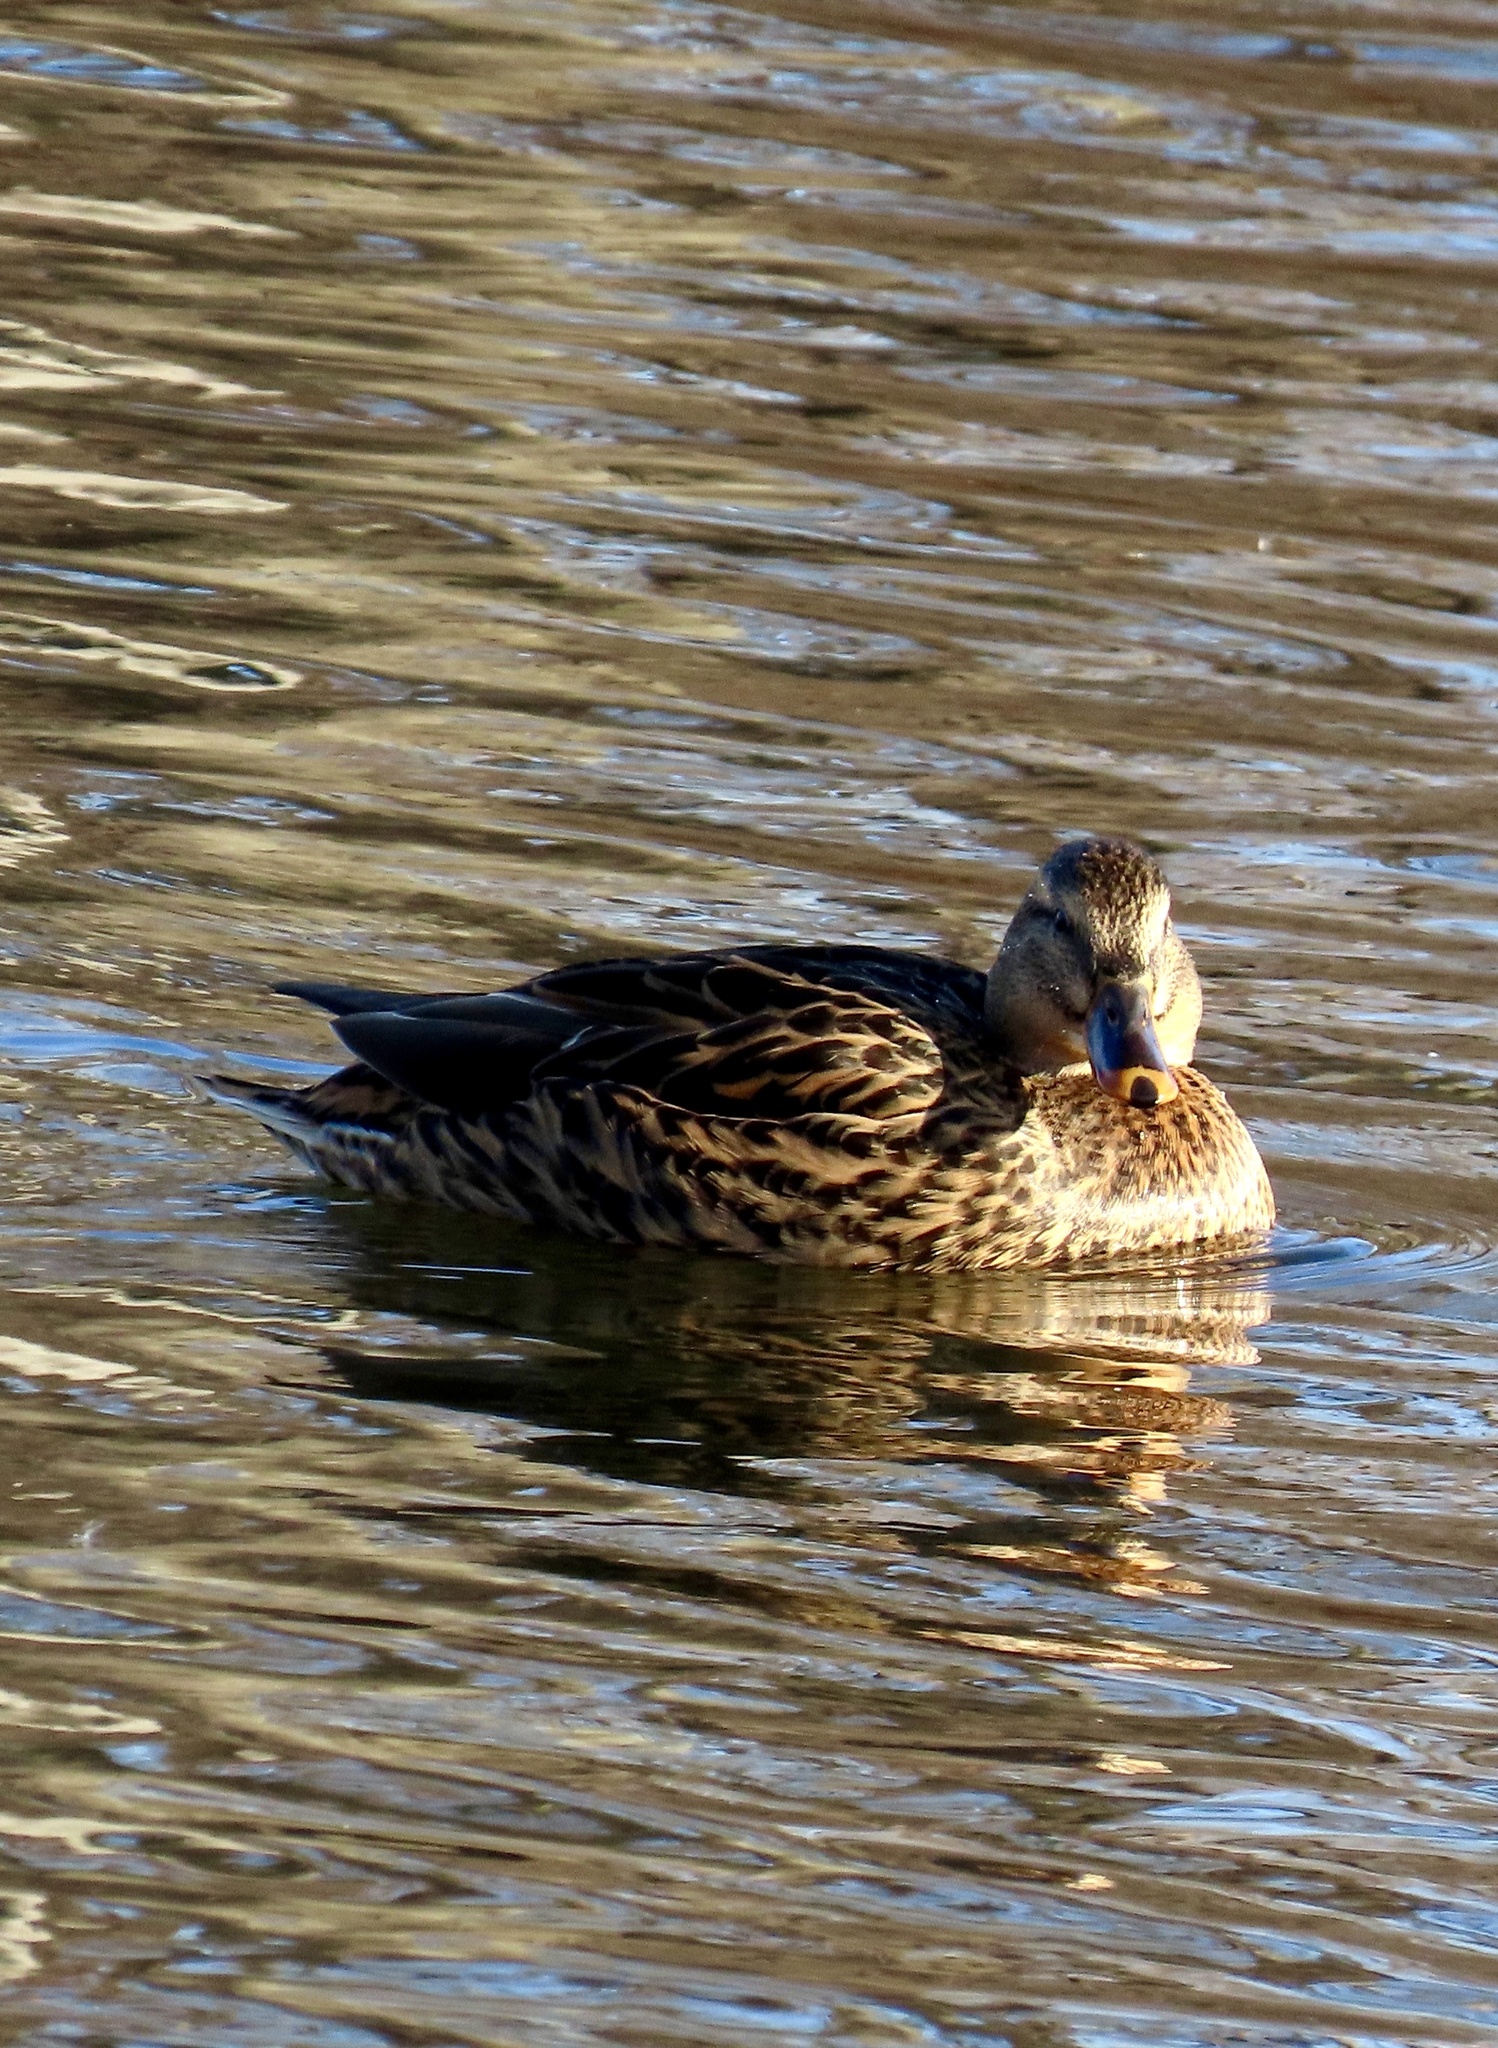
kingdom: Animalia
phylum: Chordata
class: Aves
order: Anseriformes
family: Anatidae
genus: Anas
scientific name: Anas platyrhynchos
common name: Mallard
